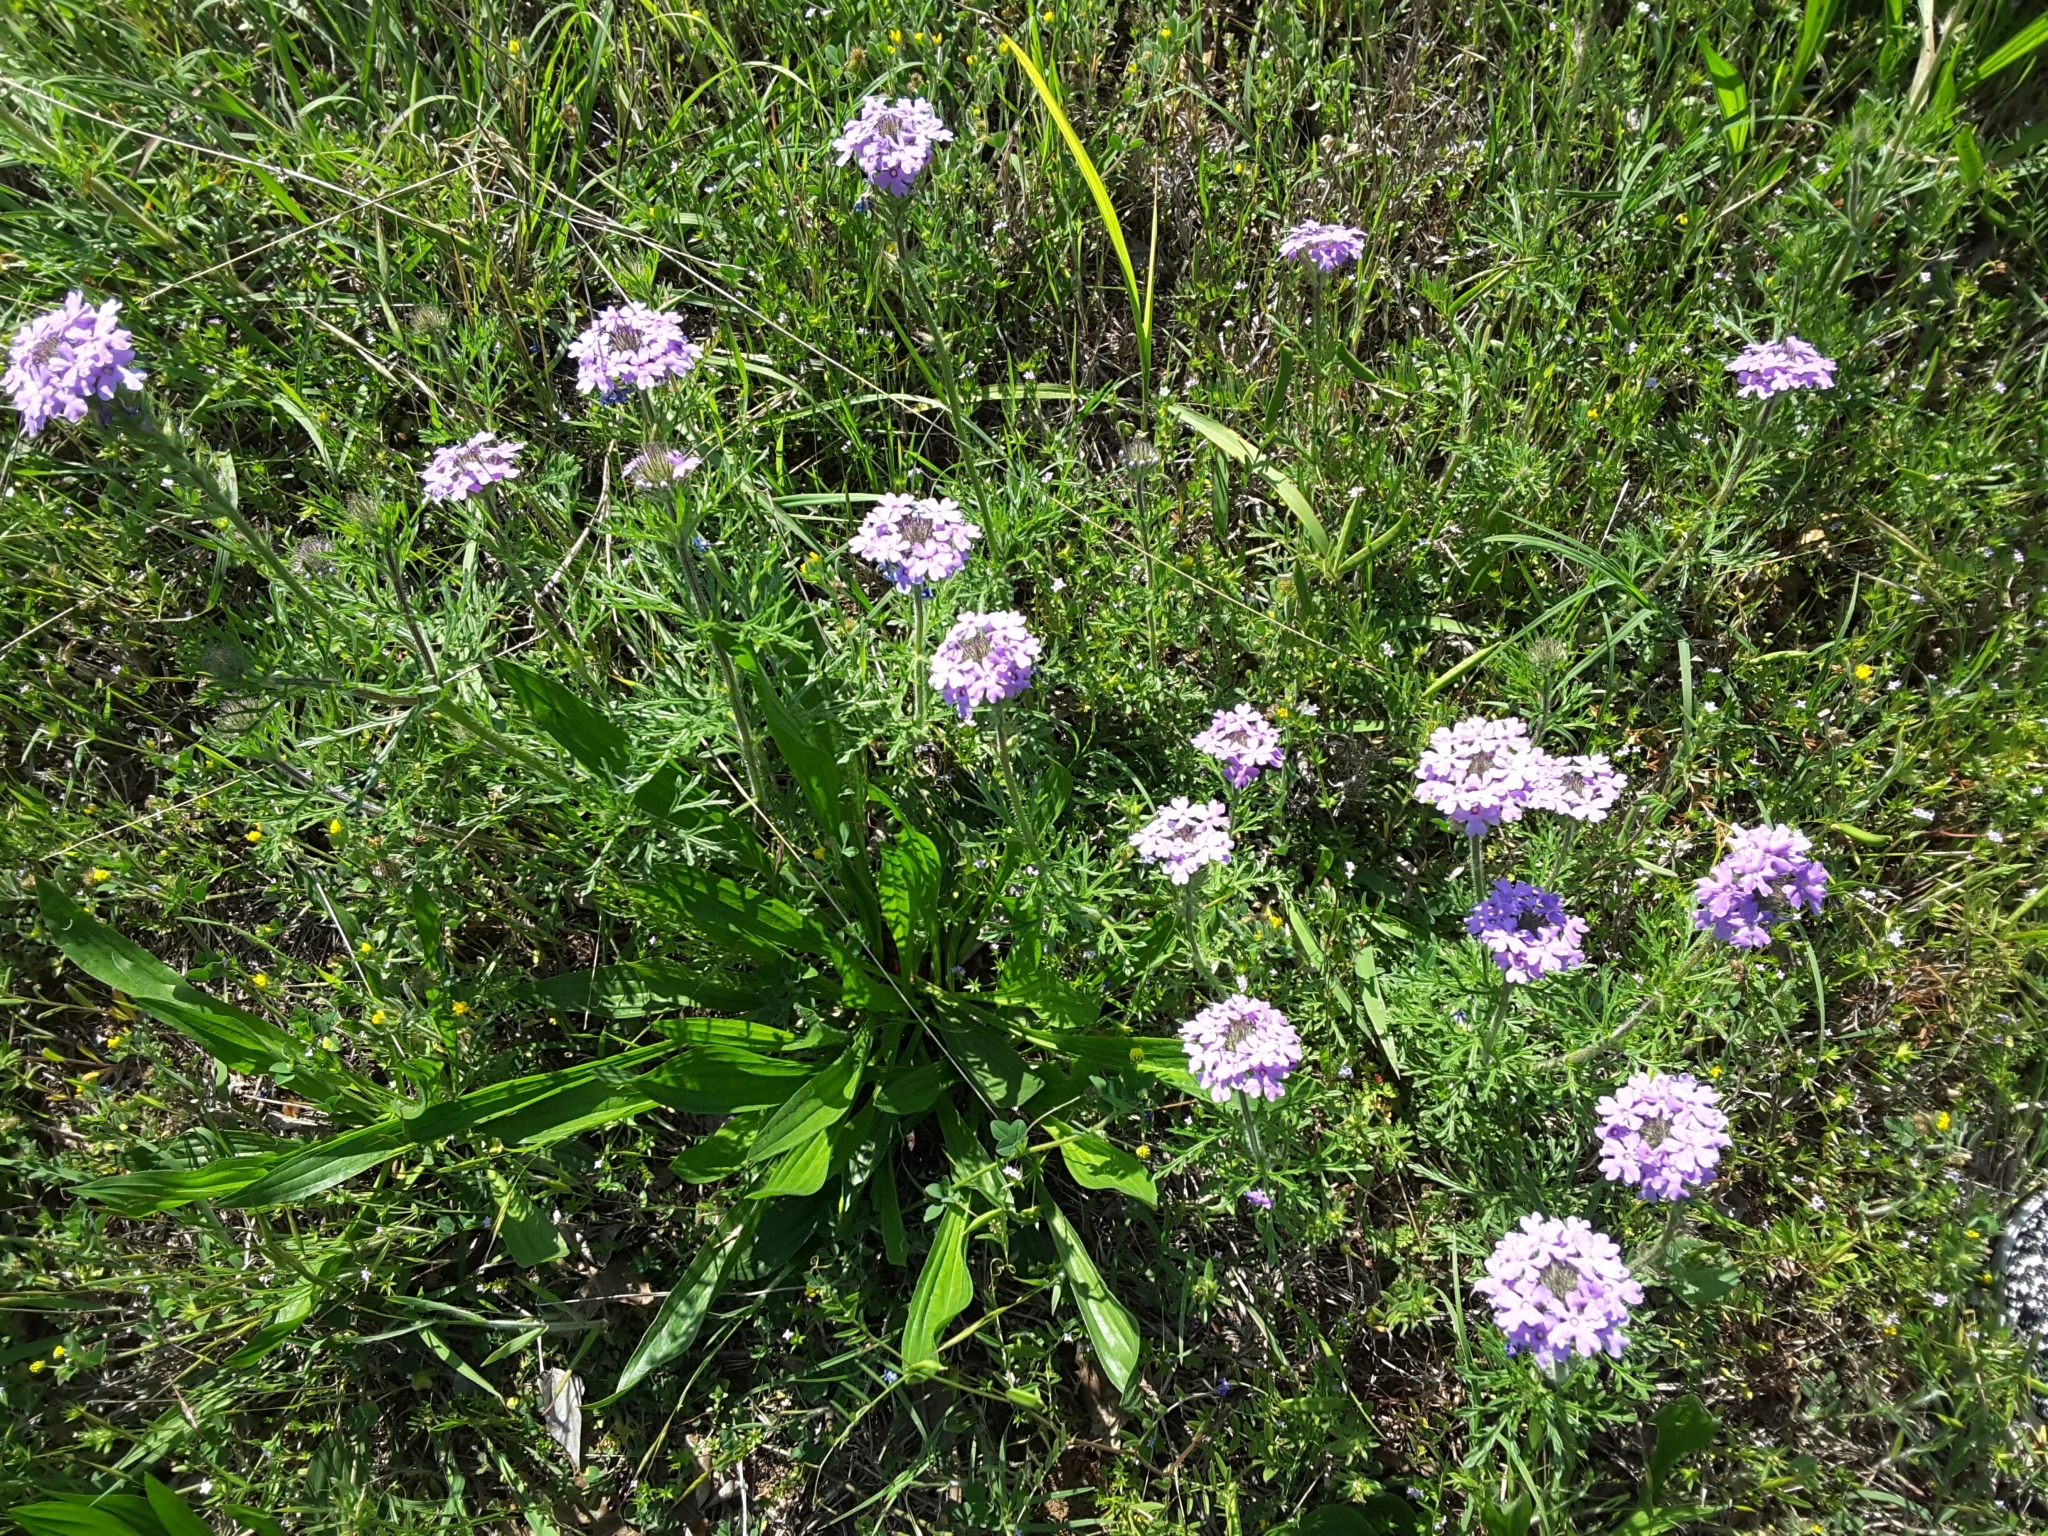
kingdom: Plantae
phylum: Tracheophyta
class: Magnoliopsida
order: Lamiales
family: Verbenaceae
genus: Verbena
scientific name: Verbena bipinnatifida
